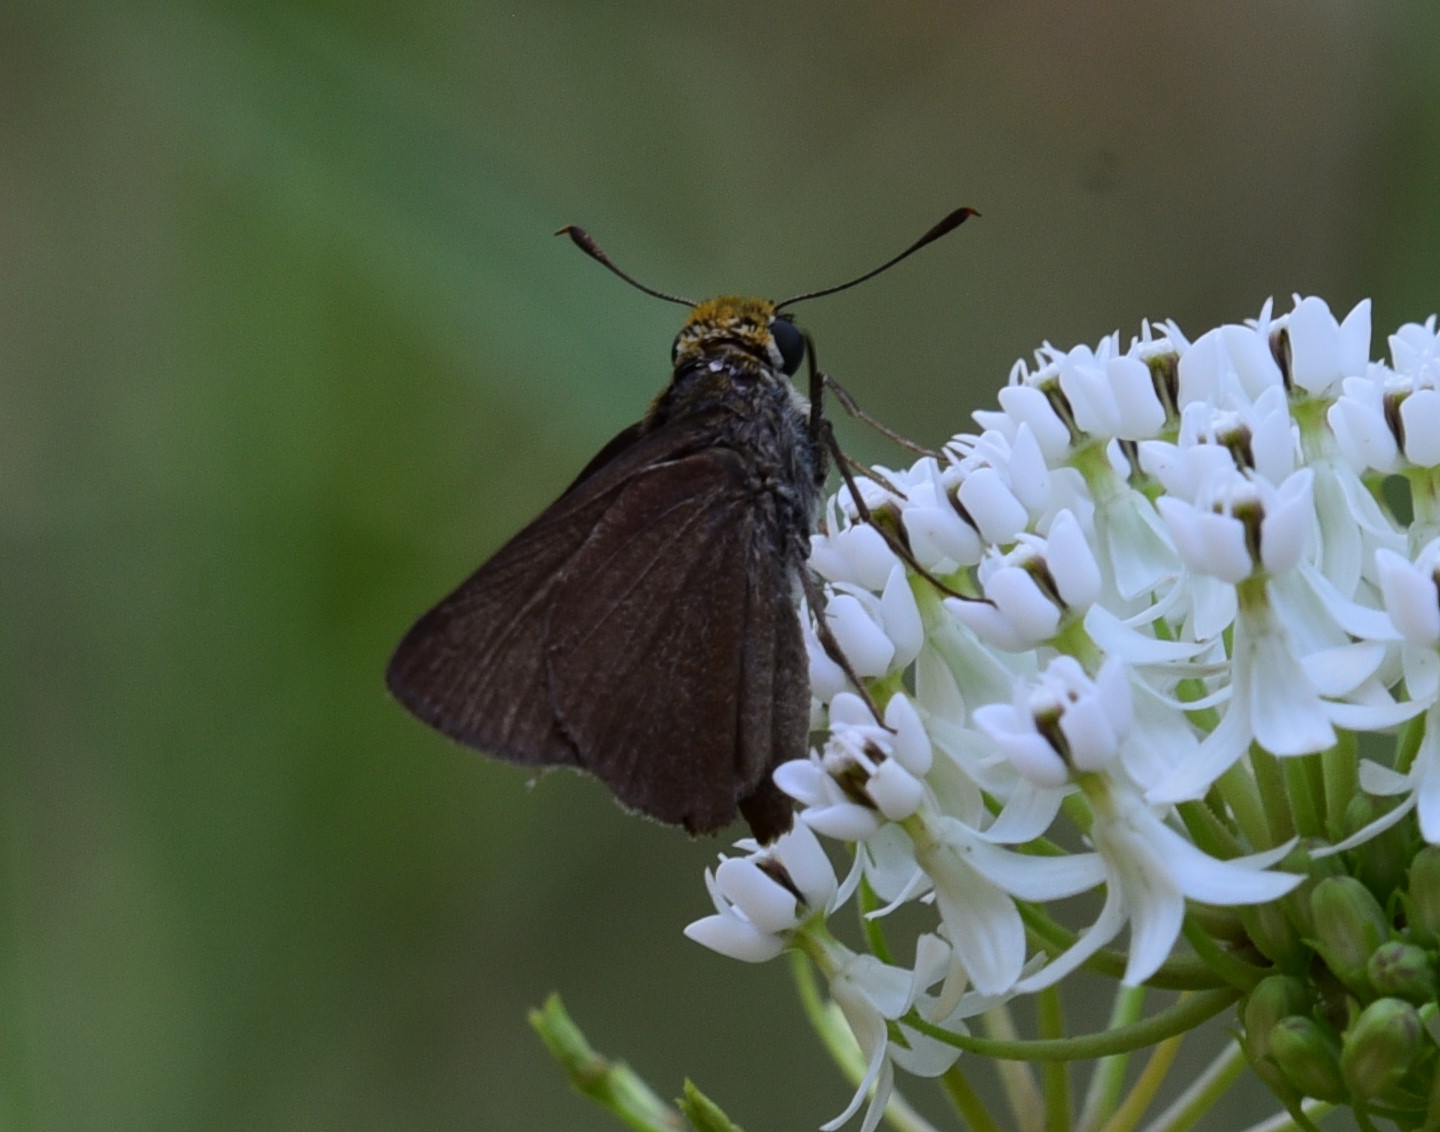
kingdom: Animalia
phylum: Arthropoda
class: Insecta
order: Lepidoptera
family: Hesperiidae
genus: Euphyes
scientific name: Euphyes vestris
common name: Dun skipper
